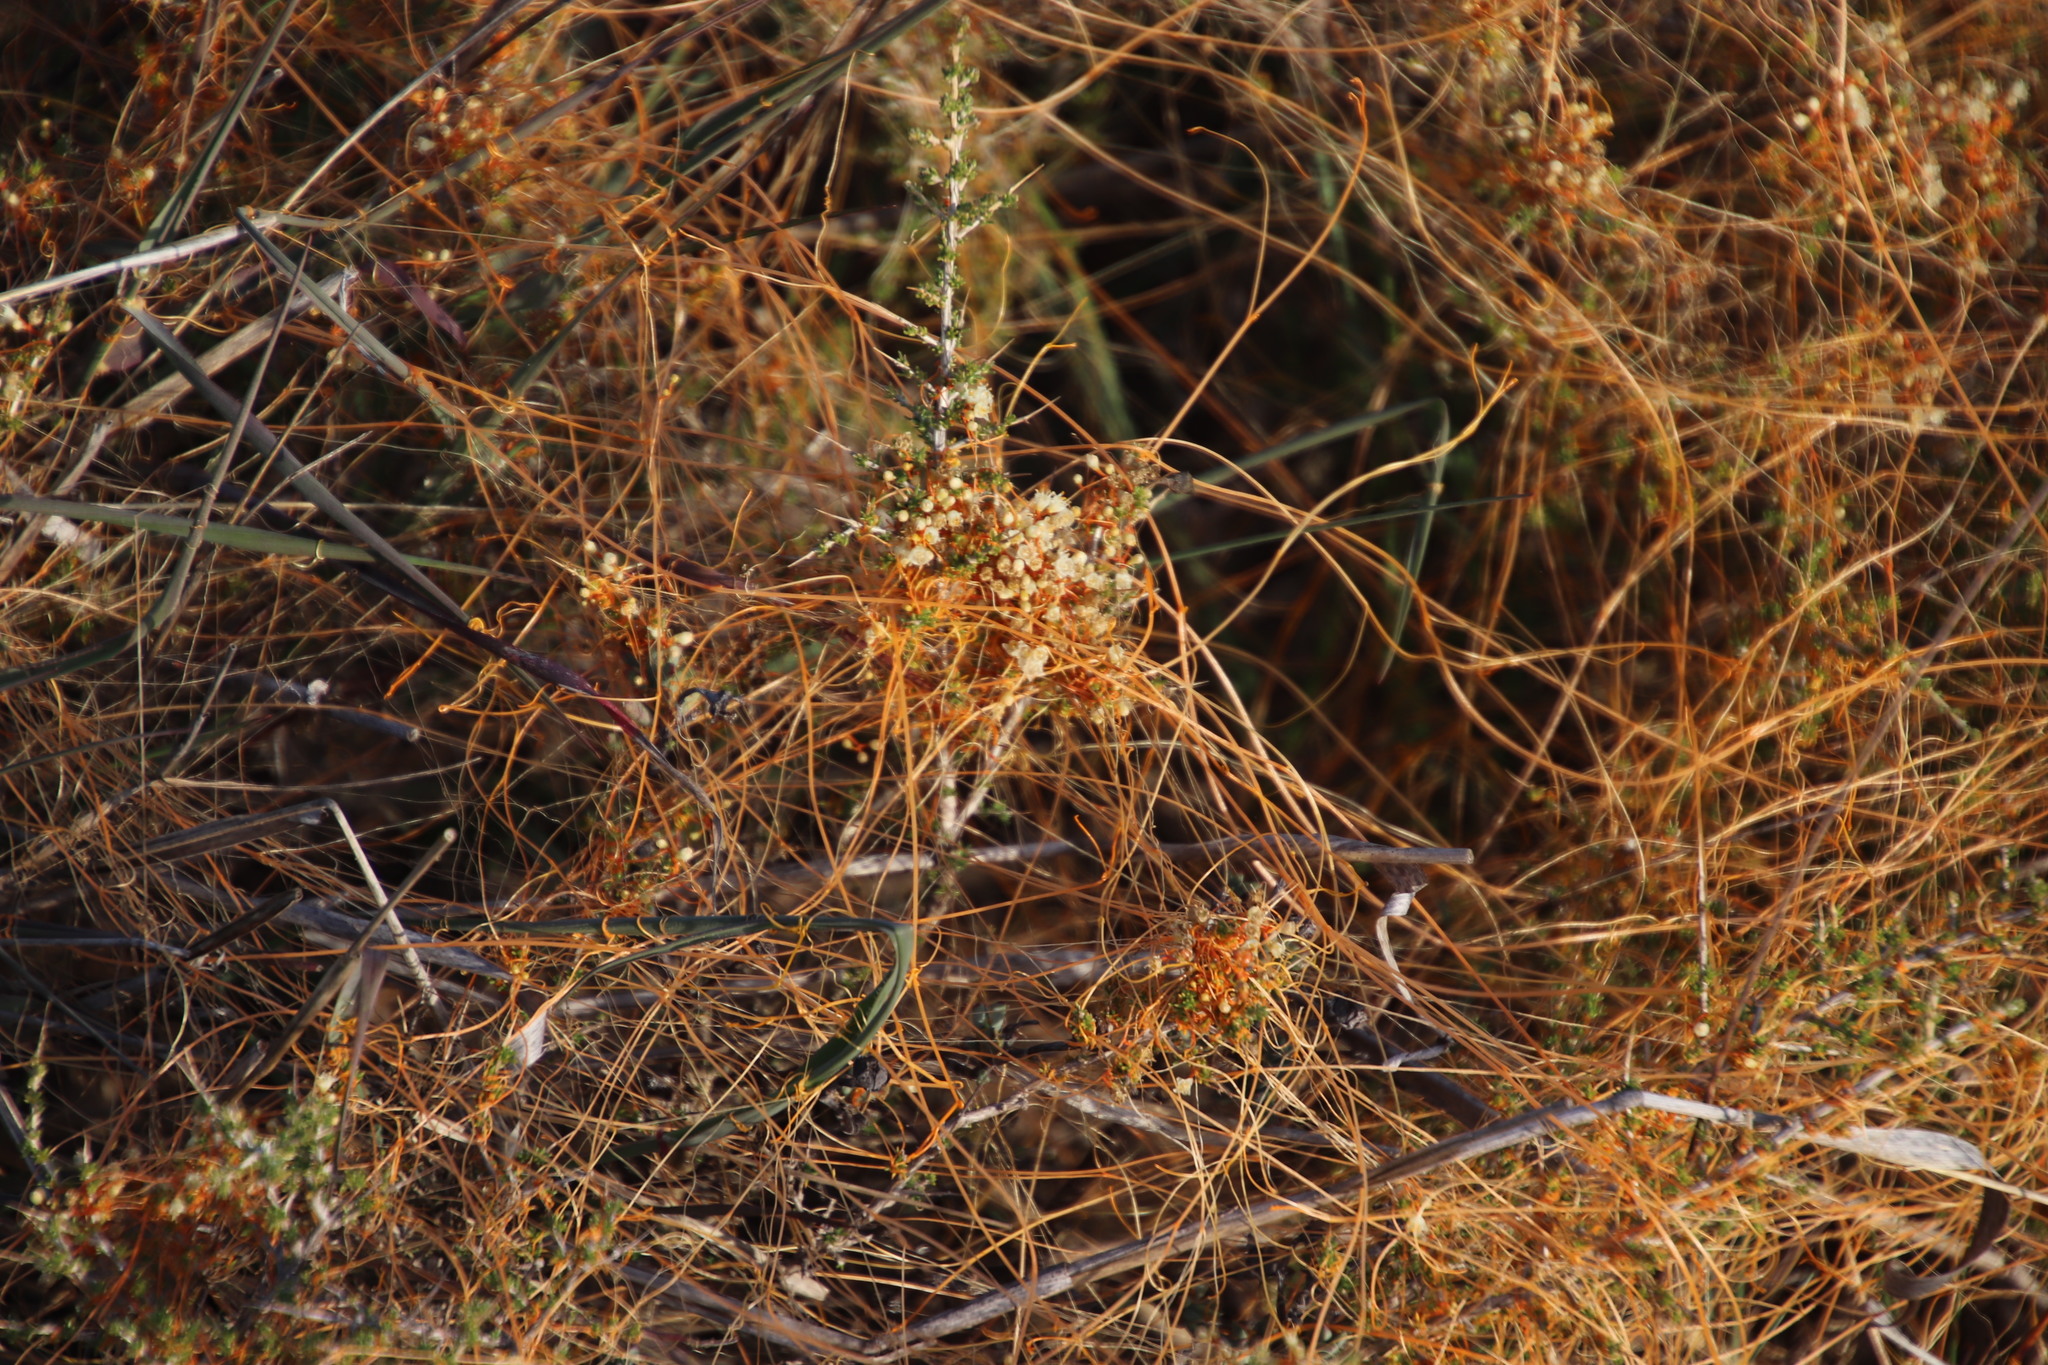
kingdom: Plantae
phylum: Tracheophyta
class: Magnoliopsida
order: Solanales
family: Convolvulaceae
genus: Cuscuta
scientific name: Cuscuta appendiculata
